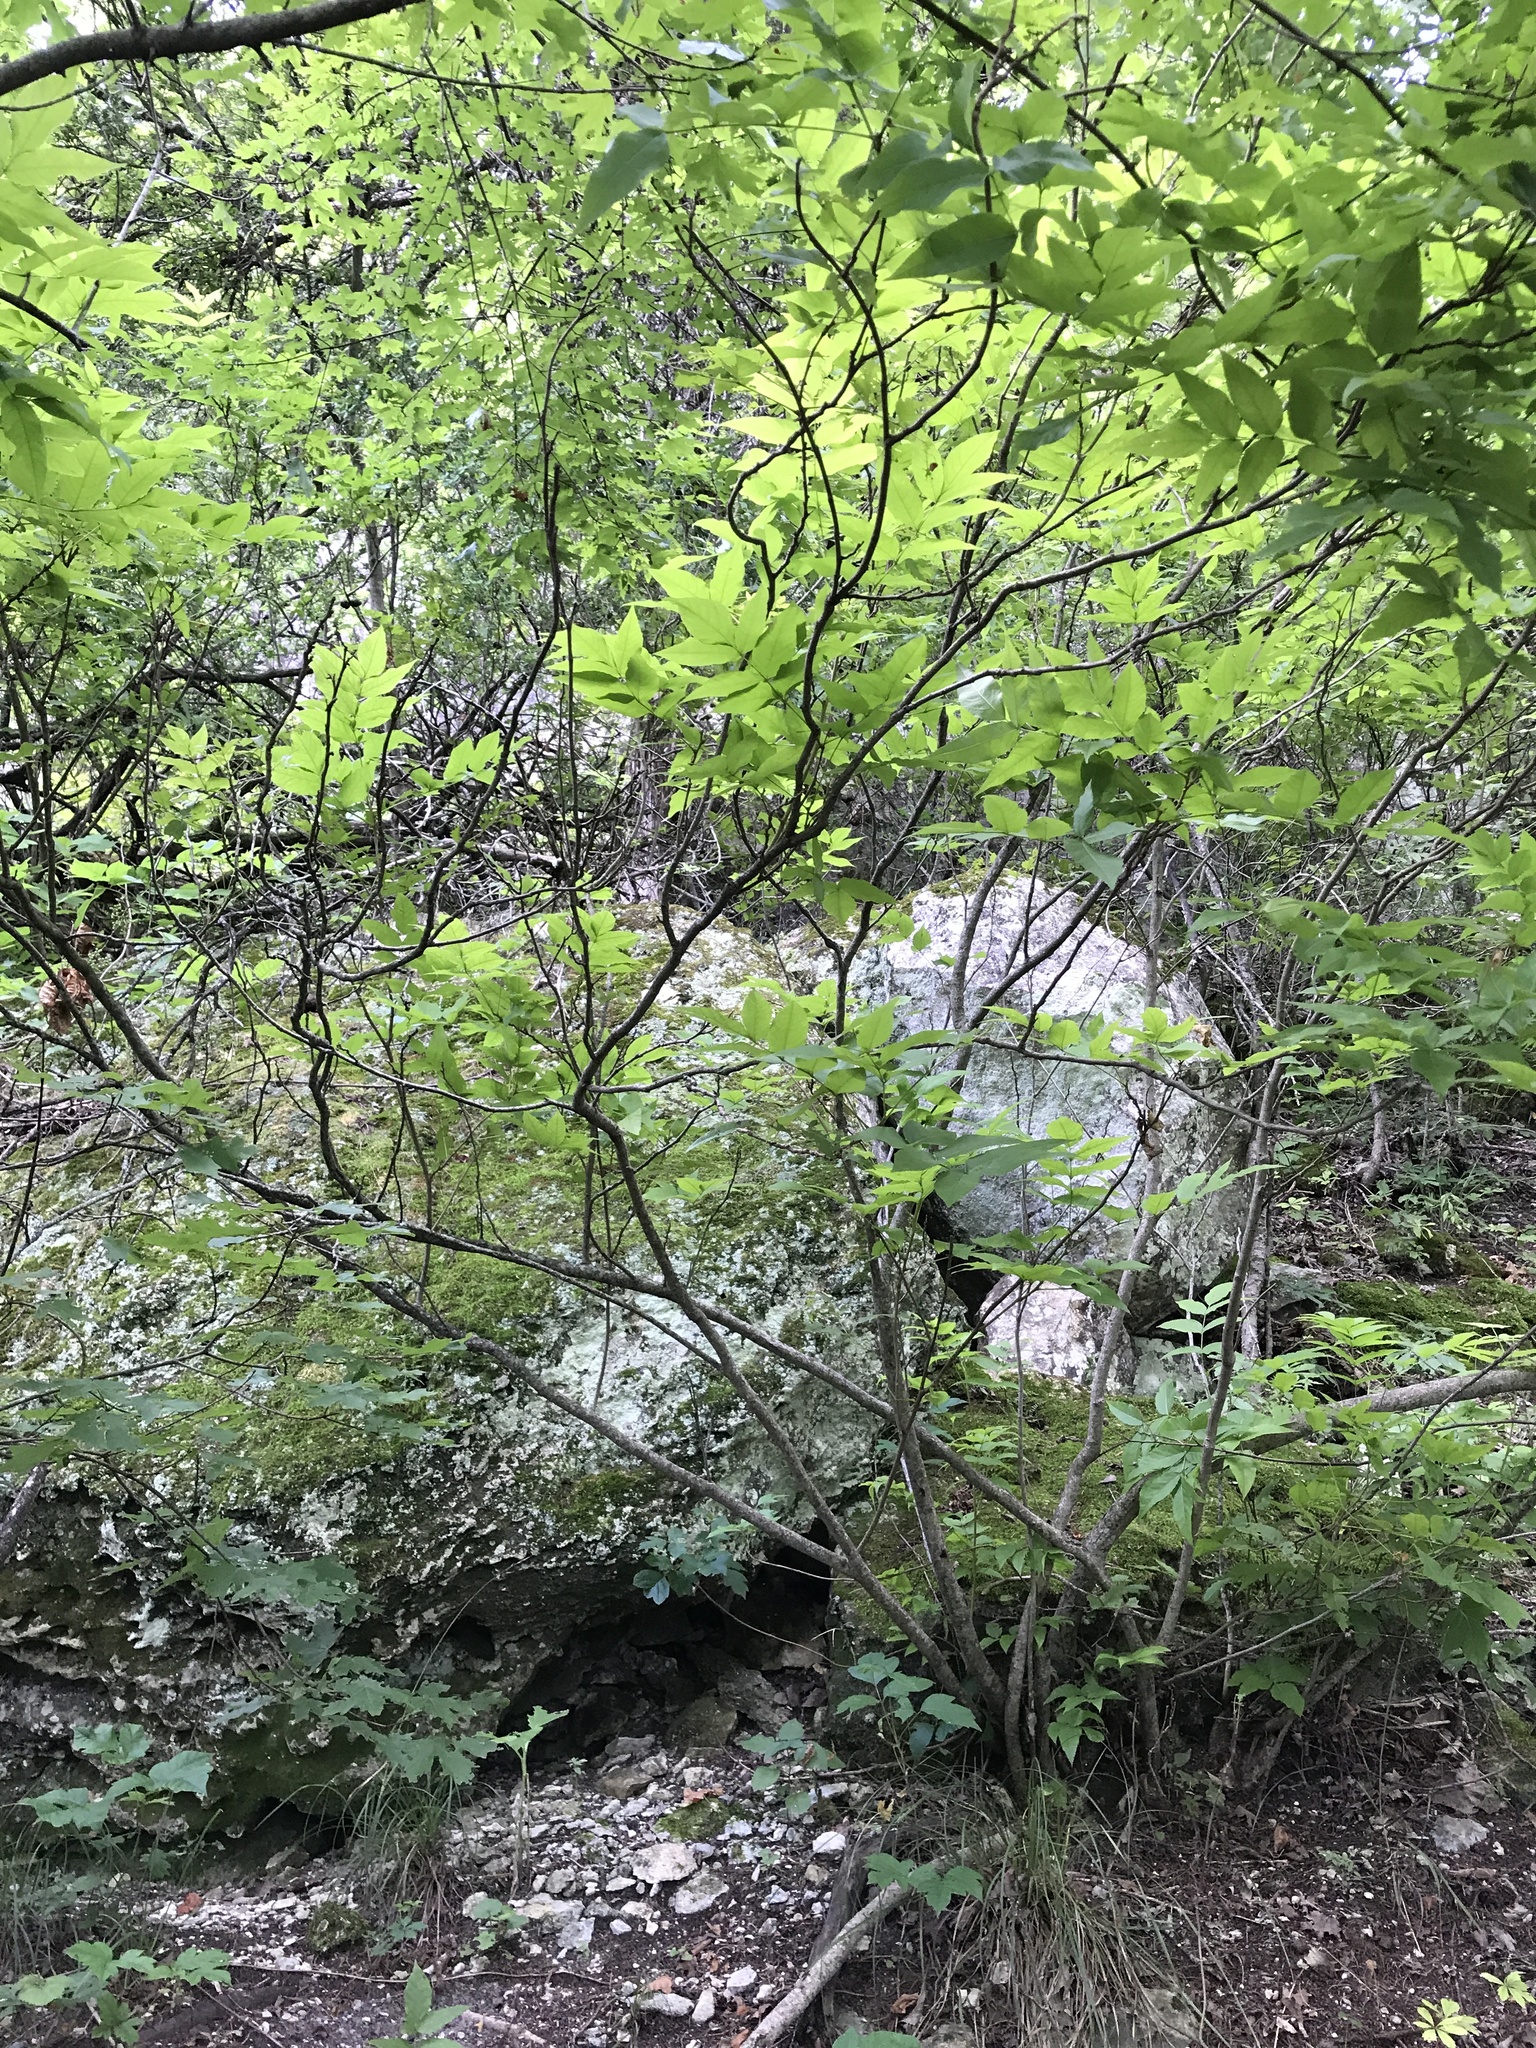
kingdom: Plantae
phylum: Tracheophyta
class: Magnoliopsida
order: Sapindales
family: Sapindaceae
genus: Ungnadia
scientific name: Ungnadia speciosa
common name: Texas-buckeye
